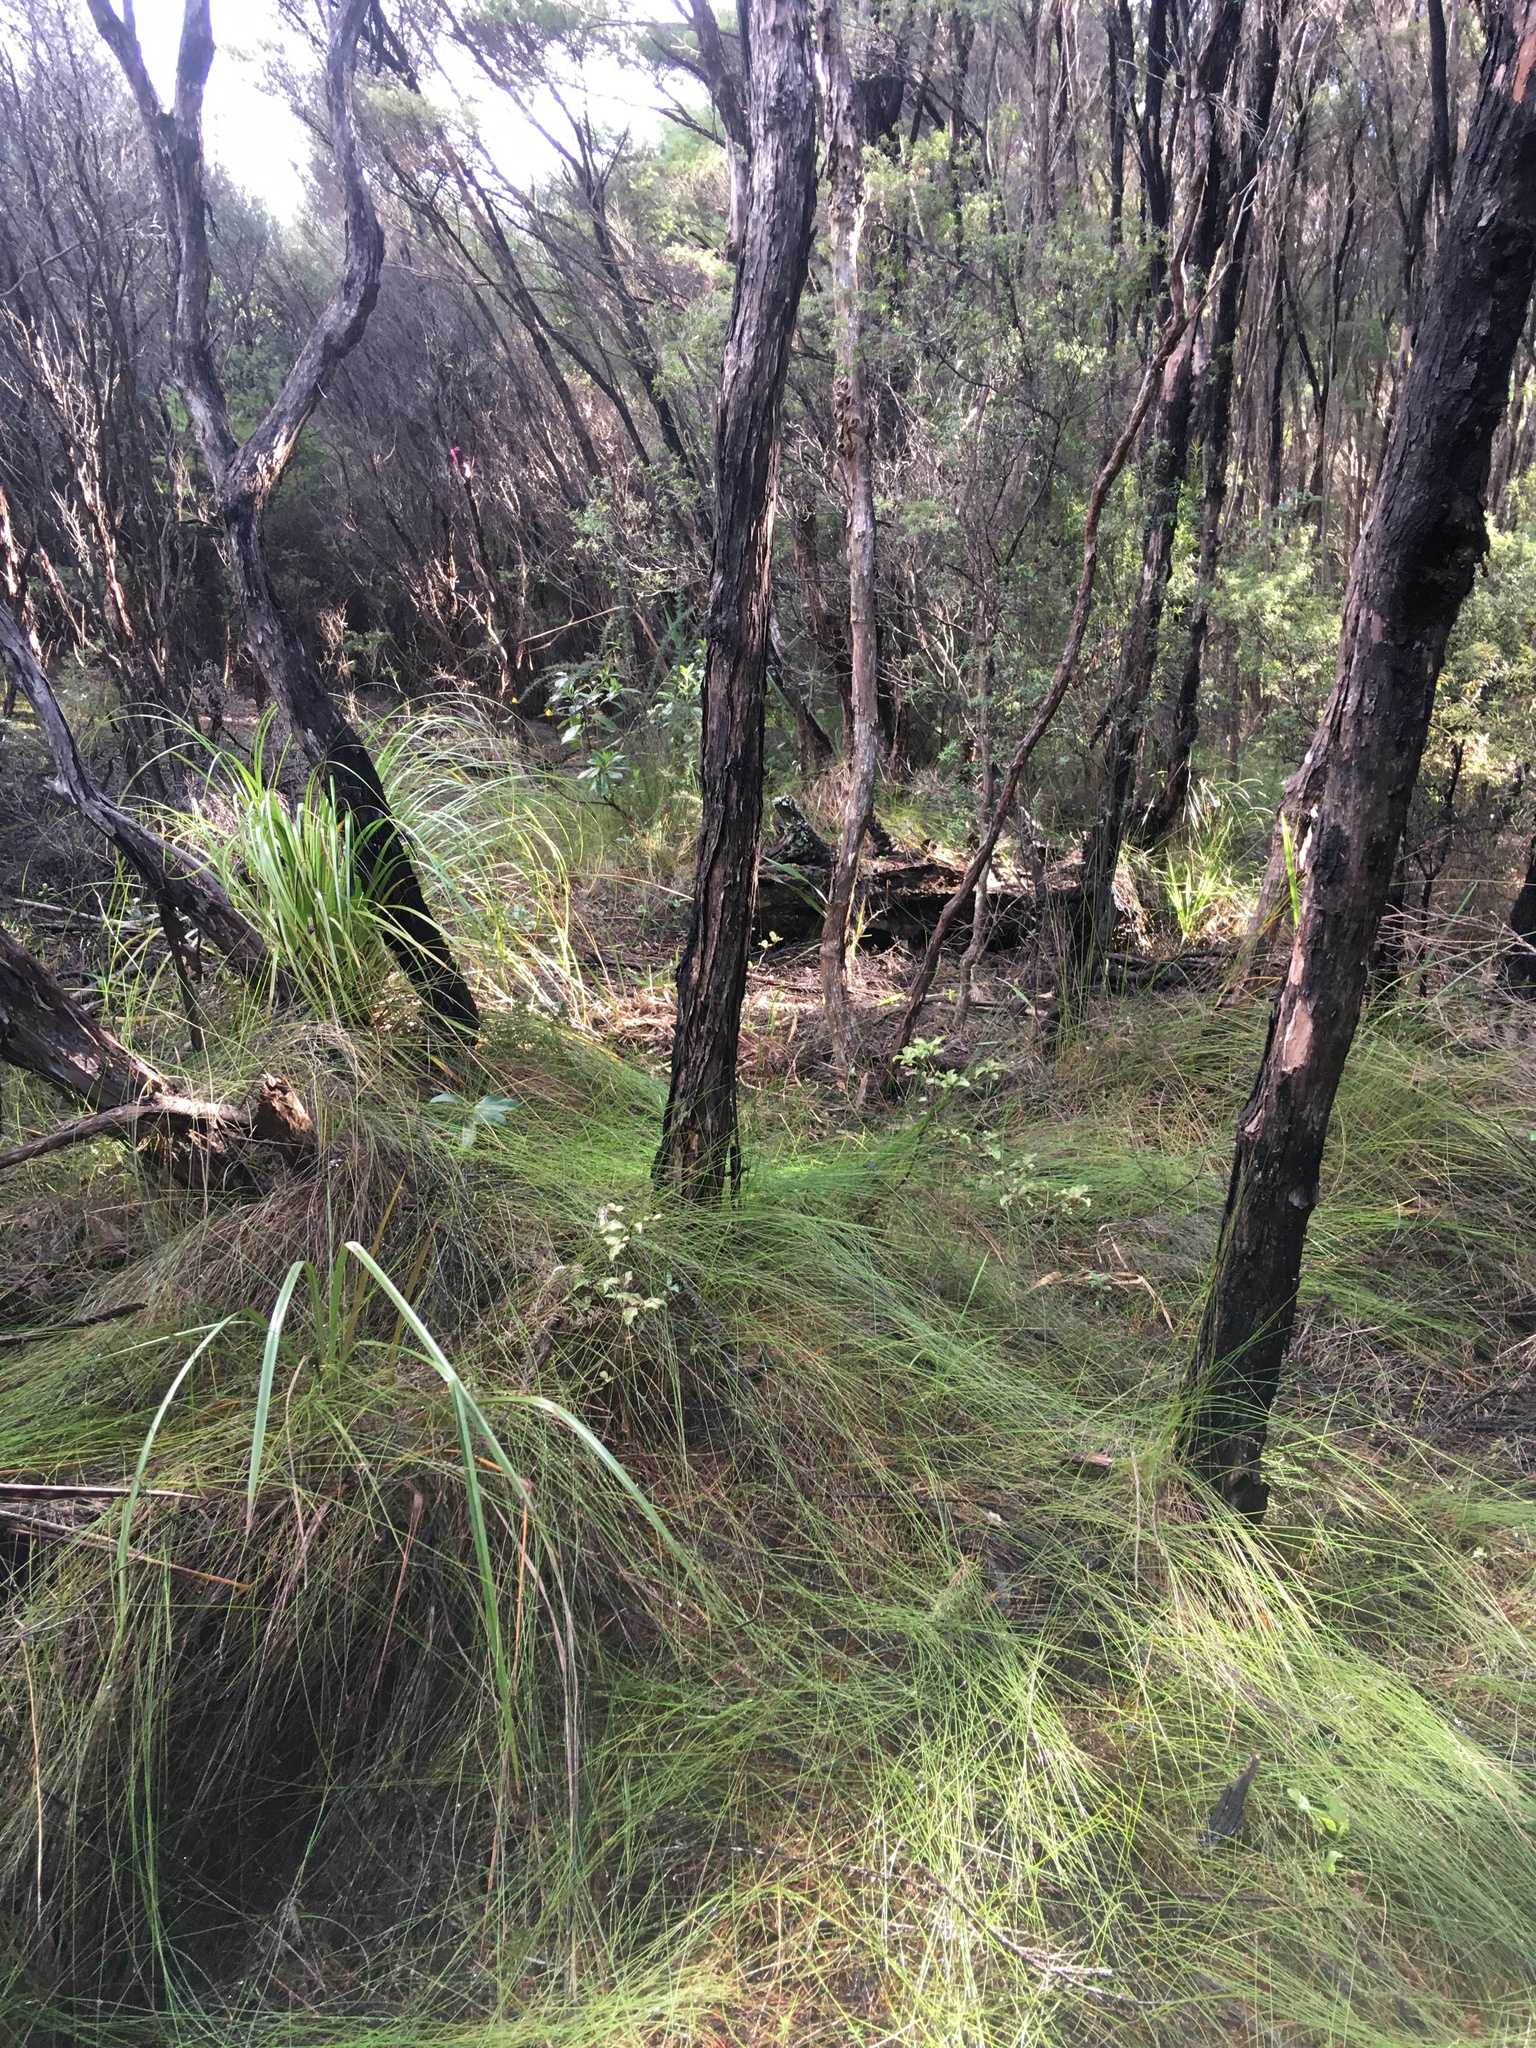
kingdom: Plantae
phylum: Tracheophyta
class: Magnoliopsida
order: Ericales
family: Primulaceae
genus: Myrsine
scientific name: Myrsine australis
